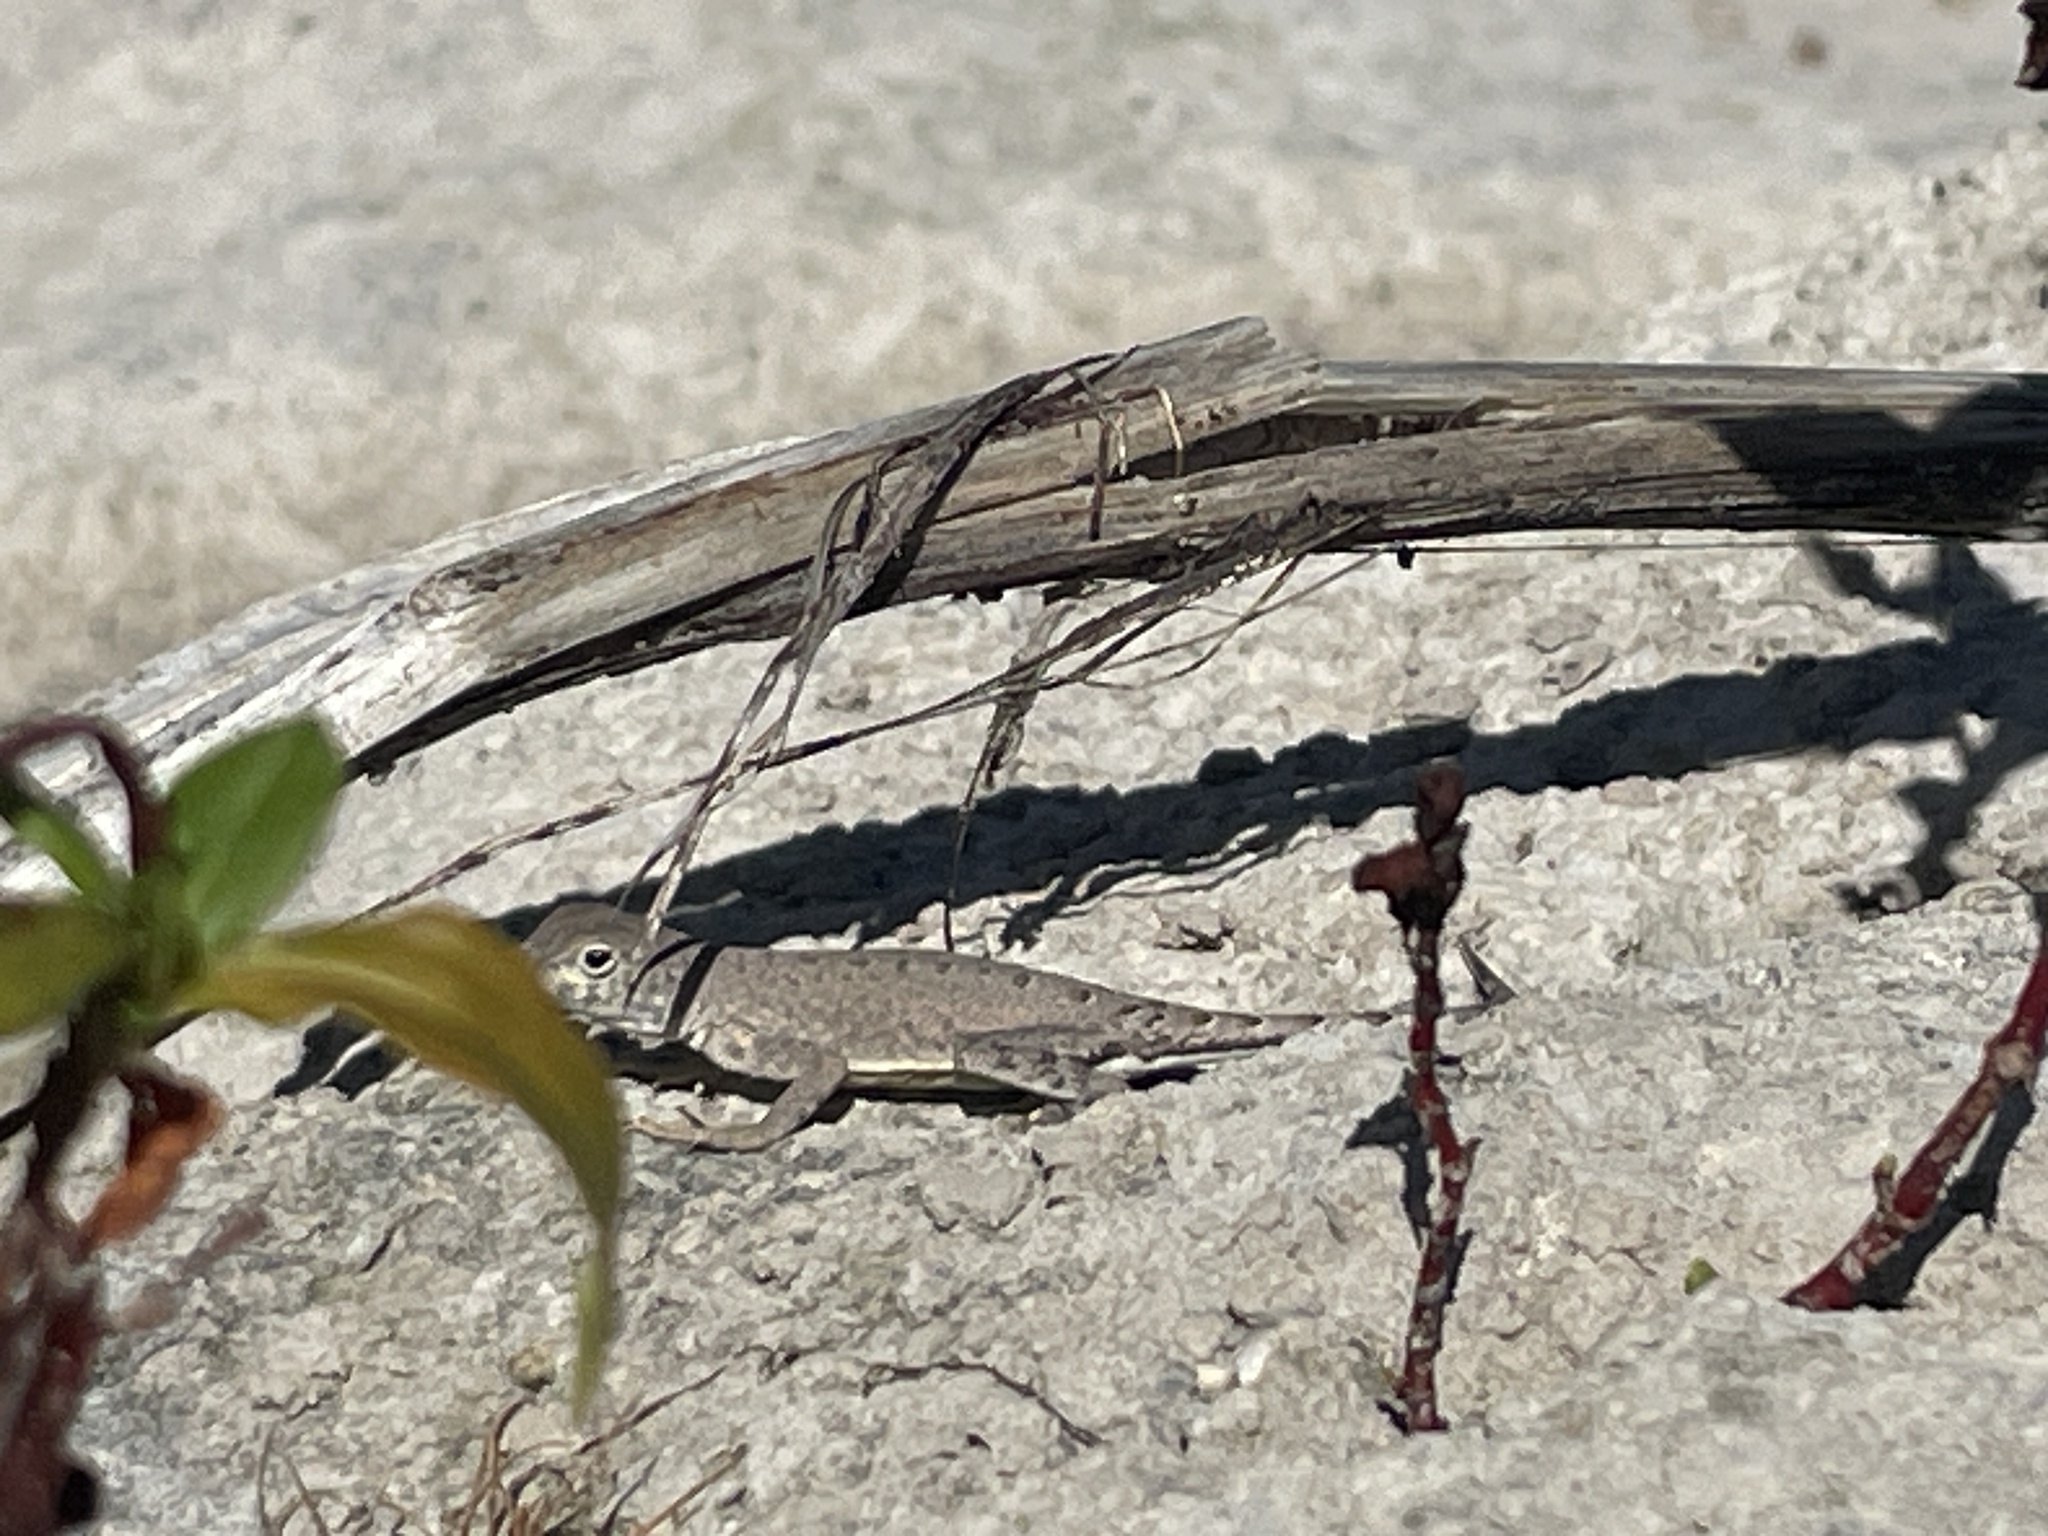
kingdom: Animalia
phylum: Chordata
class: Squamata
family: Phrynosomatidae
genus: Cophosaurus
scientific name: Cophosaurus texanus
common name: Greater earless lizard
